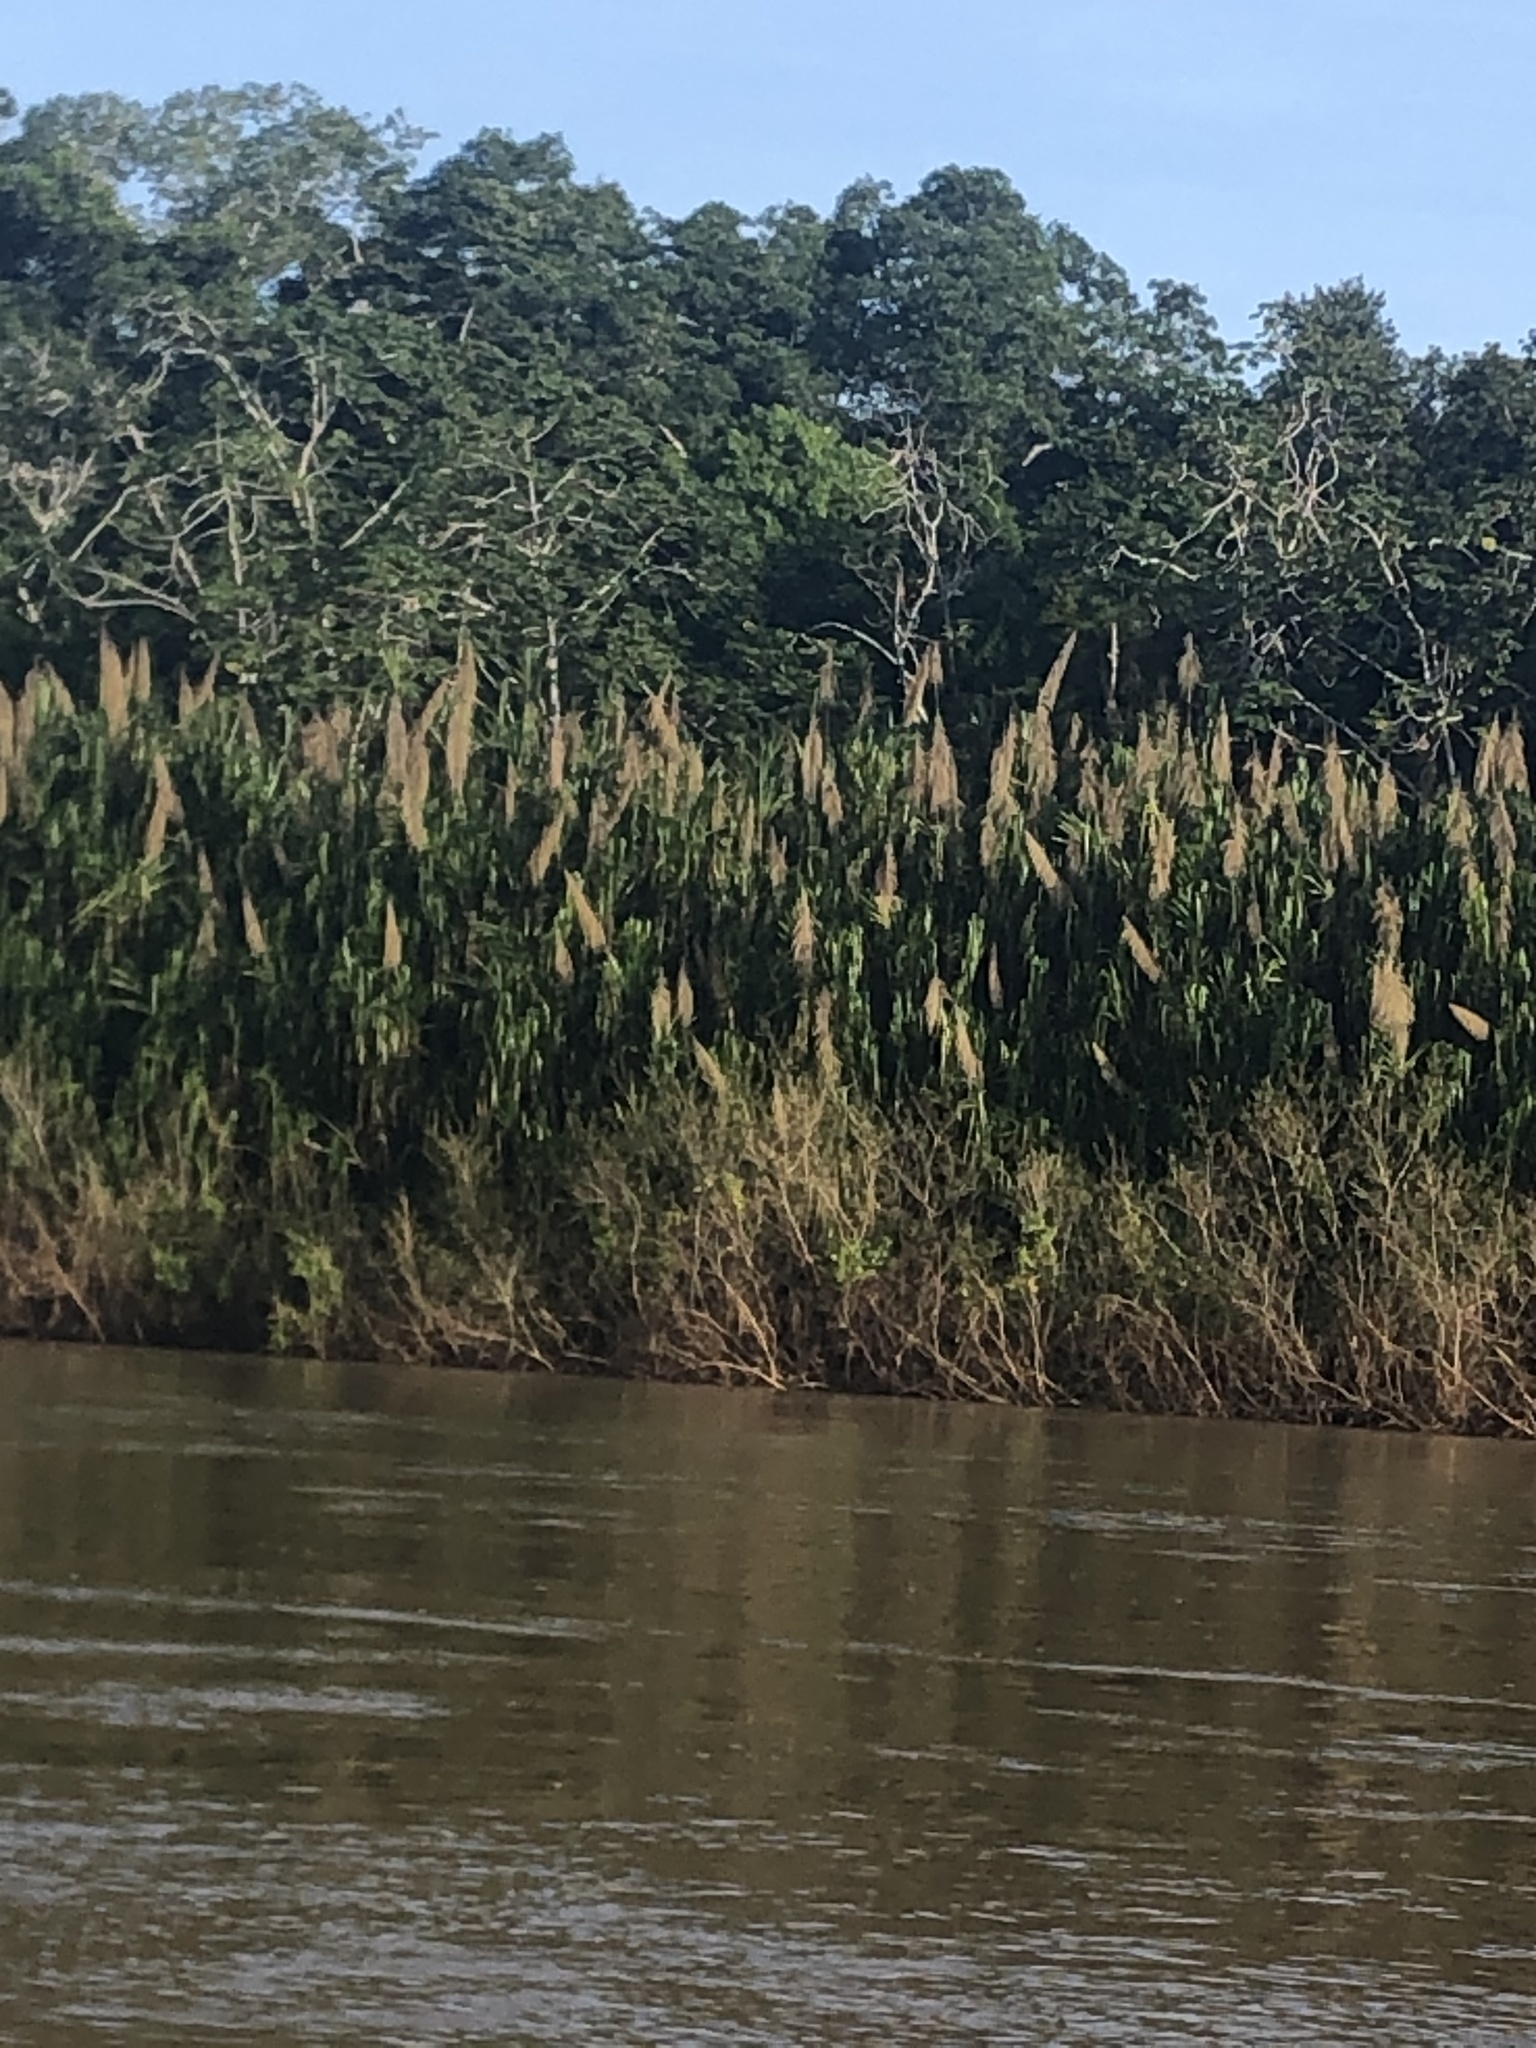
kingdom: Plantae
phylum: Tracheophyta
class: Liliopsida
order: Poales
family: Poaceae
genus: Gynerium
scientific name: Gynerium sagittatum
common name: Wild cane
